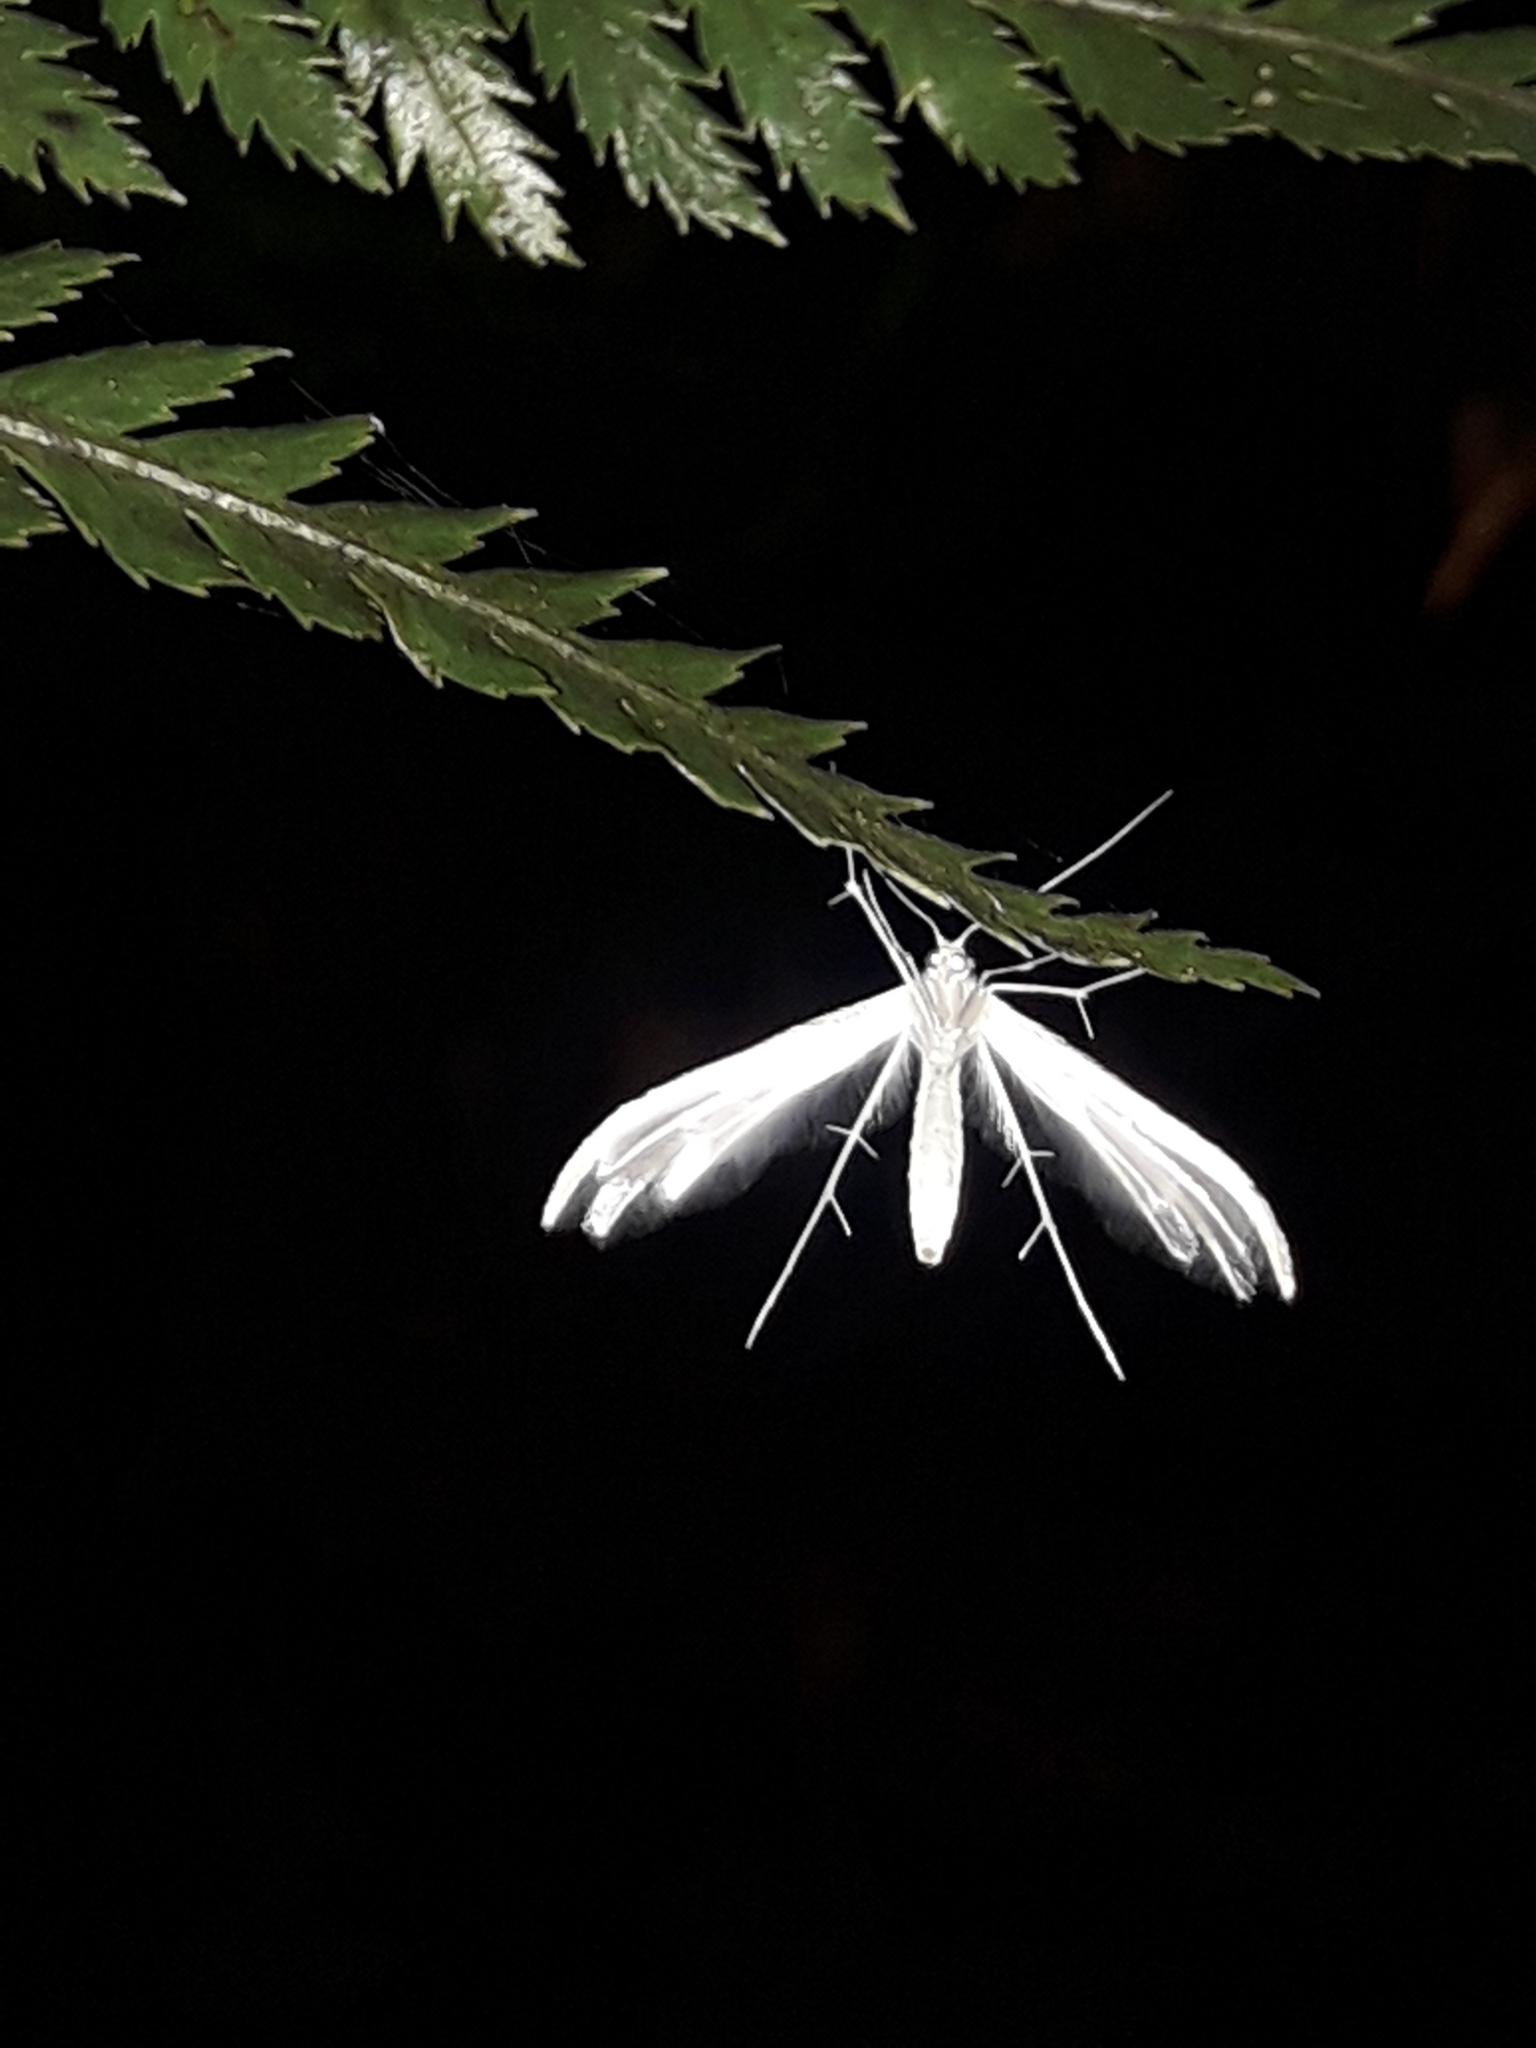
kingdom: Animalia
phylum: Arthropoda
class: Insecta
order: Lepidoptera
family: Pterophoridae
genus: Pterophorus
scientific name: Pterophorus monospilalis
